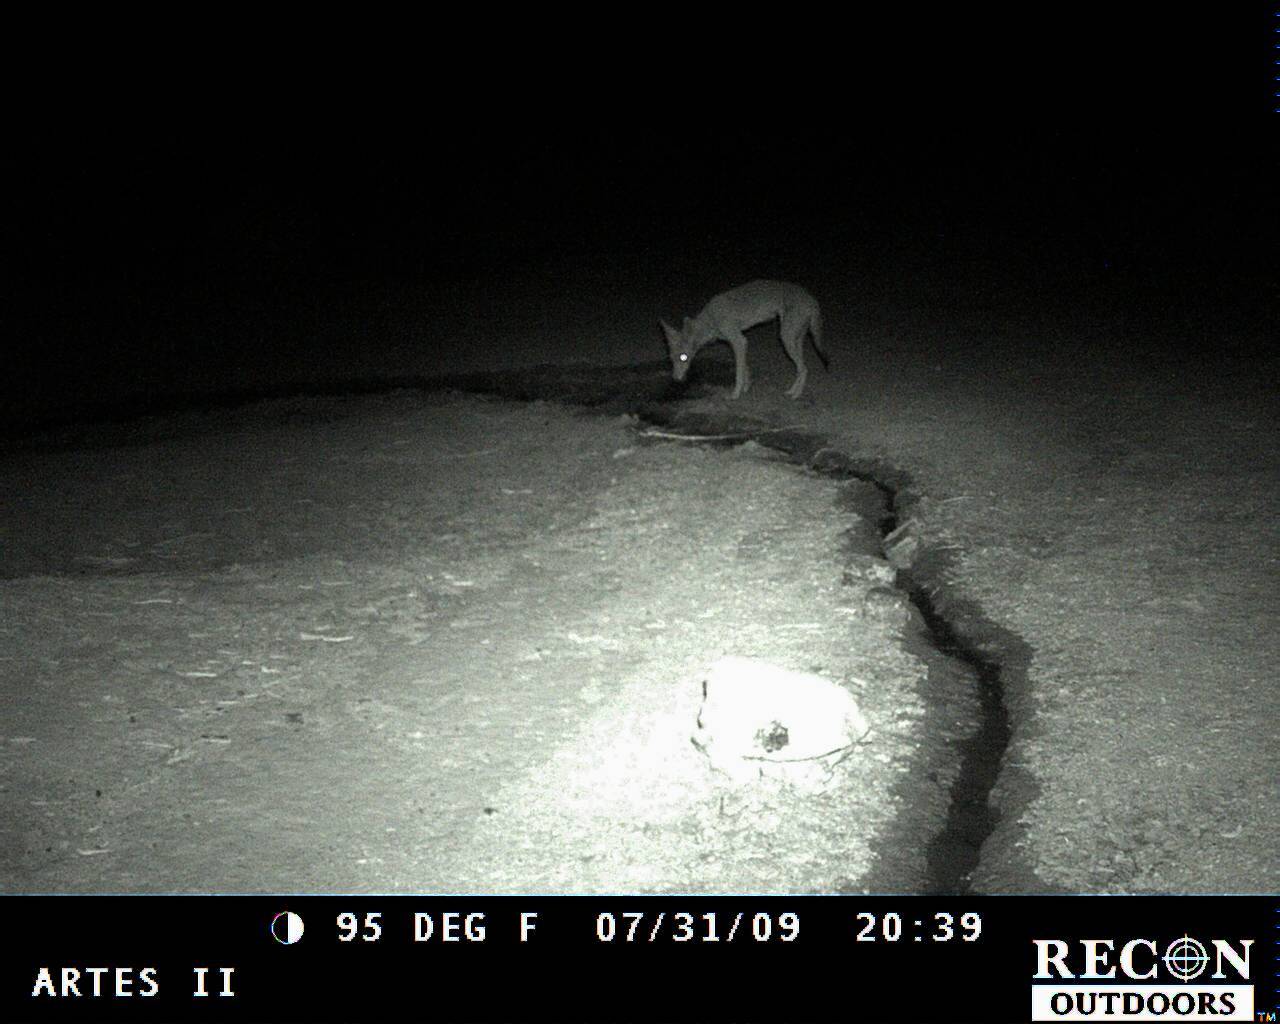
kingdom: Animalia
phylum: Chordata
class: Mammalia
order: Carnivora
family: Canidae
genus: Canis
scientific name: Canis latrans
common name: Coyote
